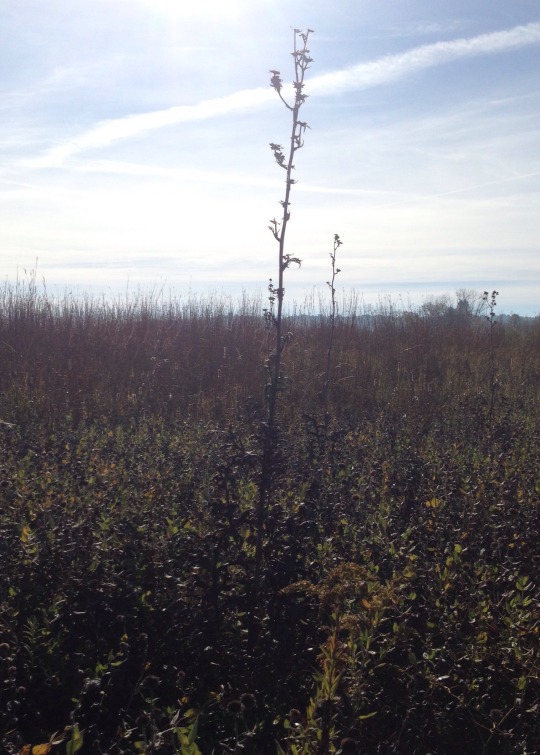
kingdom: Plantae
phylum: Tracheophyta
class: Magnoliopsida
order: Asterales
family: Asteraceae
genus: Silphium
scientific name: Silphium laciniatum
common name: Polarplant
